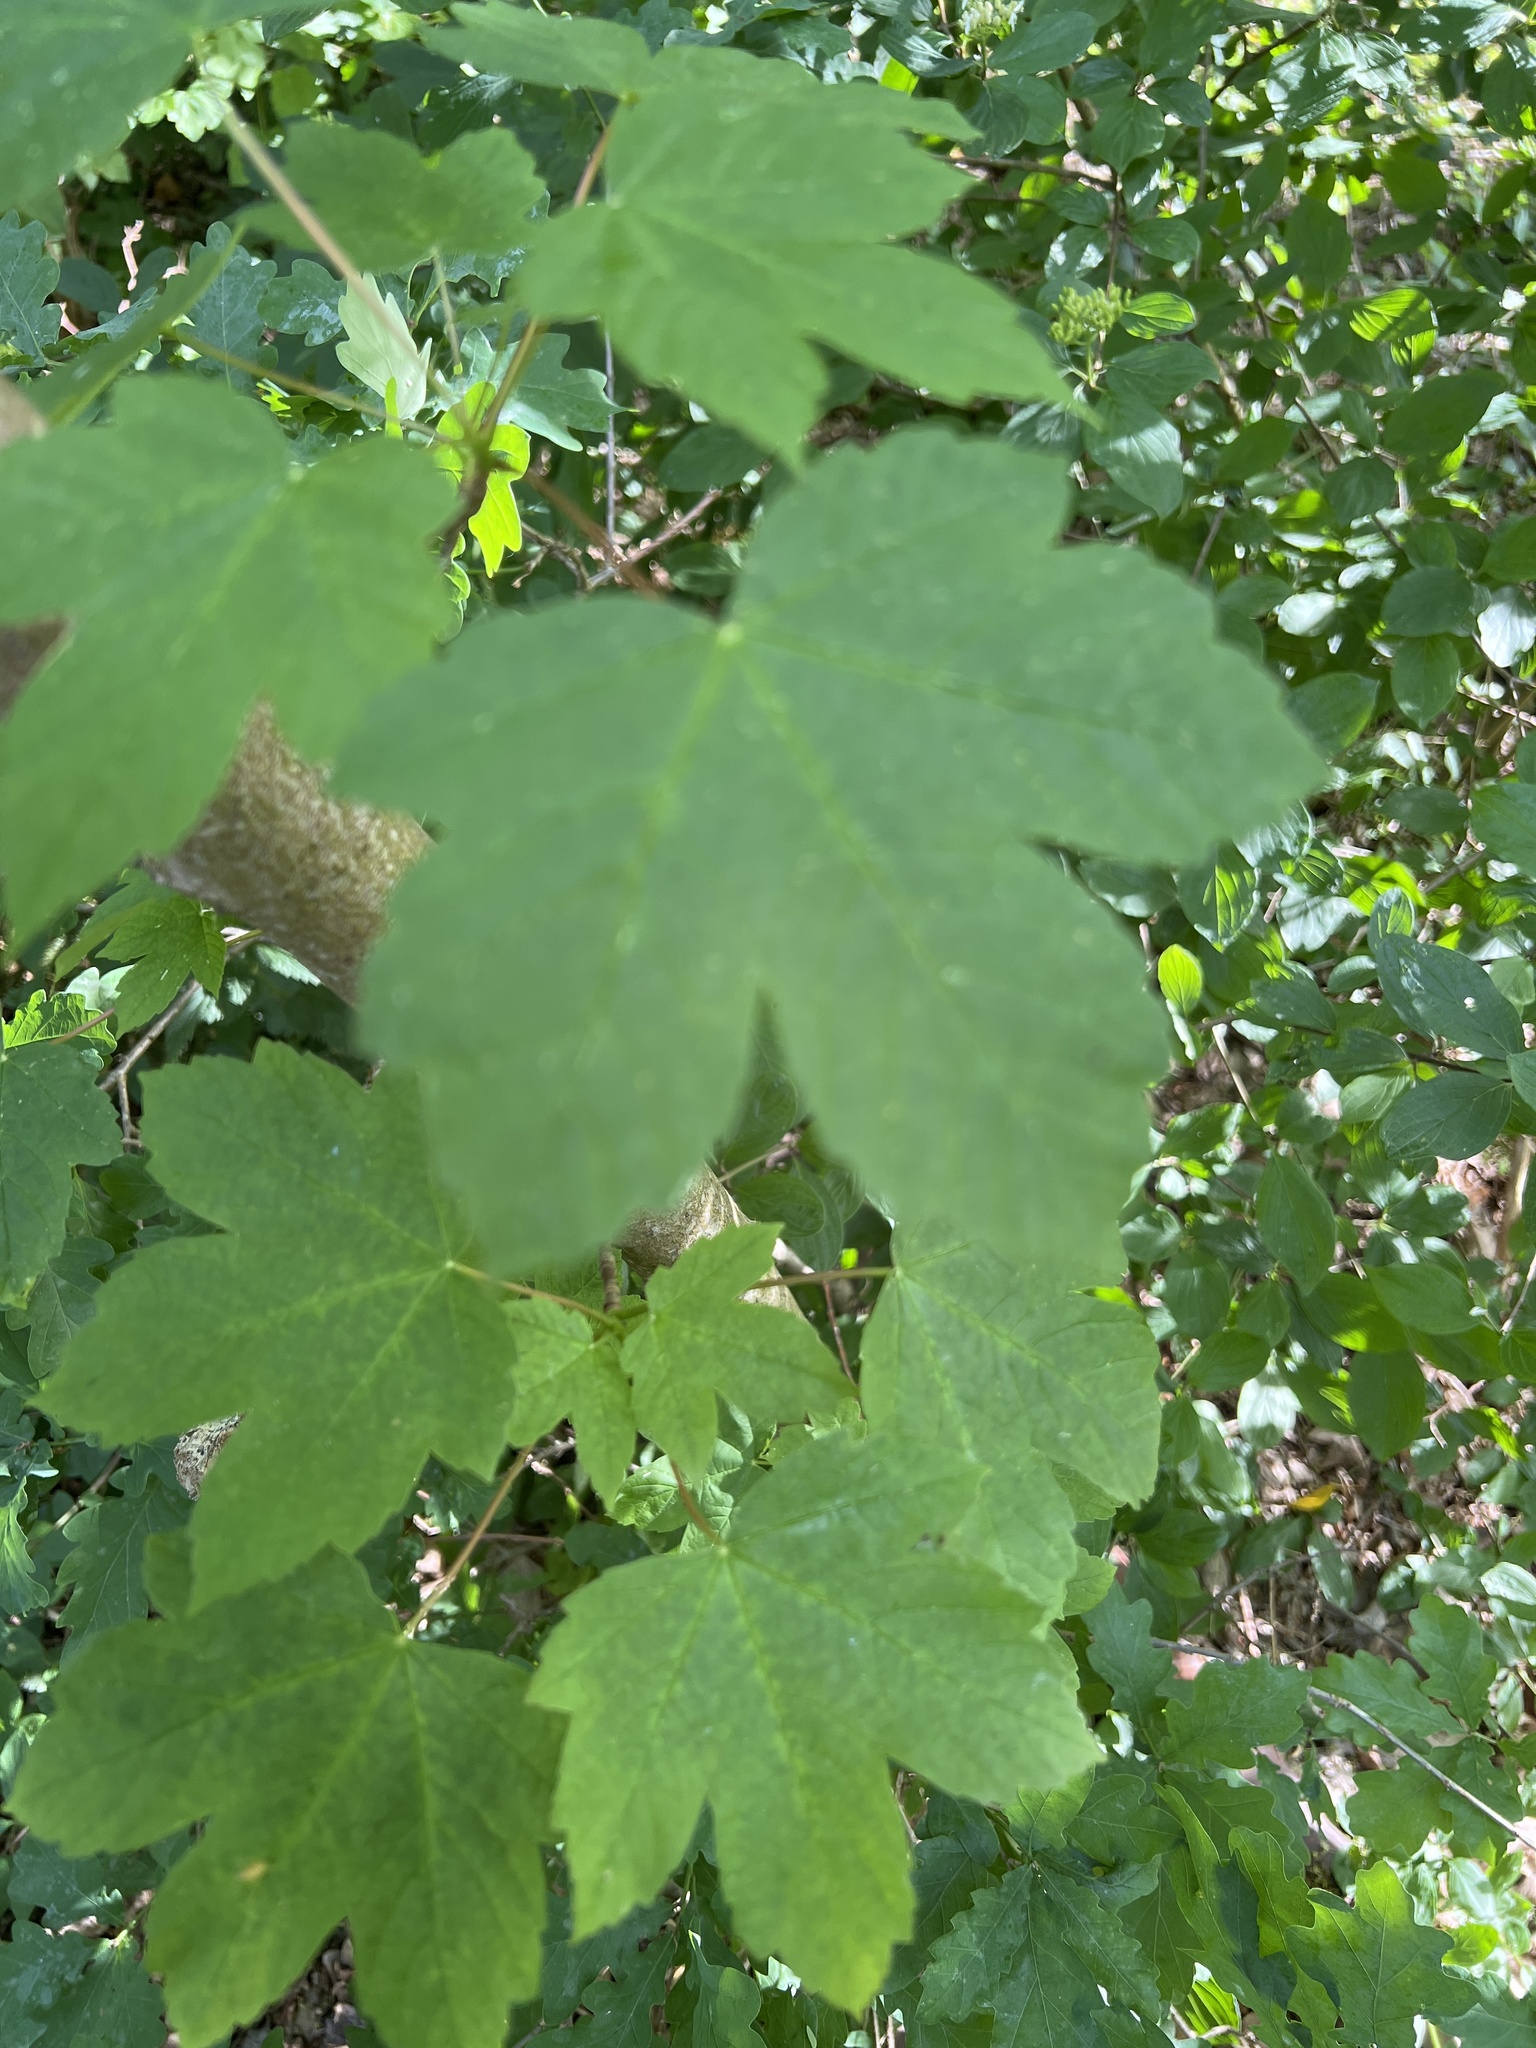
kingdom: Plantae
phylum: Tracheophyta
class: Magnoliopsida
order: Sapindales
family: Sapindaceae
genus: Acer
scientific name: Acer pseudoplatanus
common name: Sycamore
